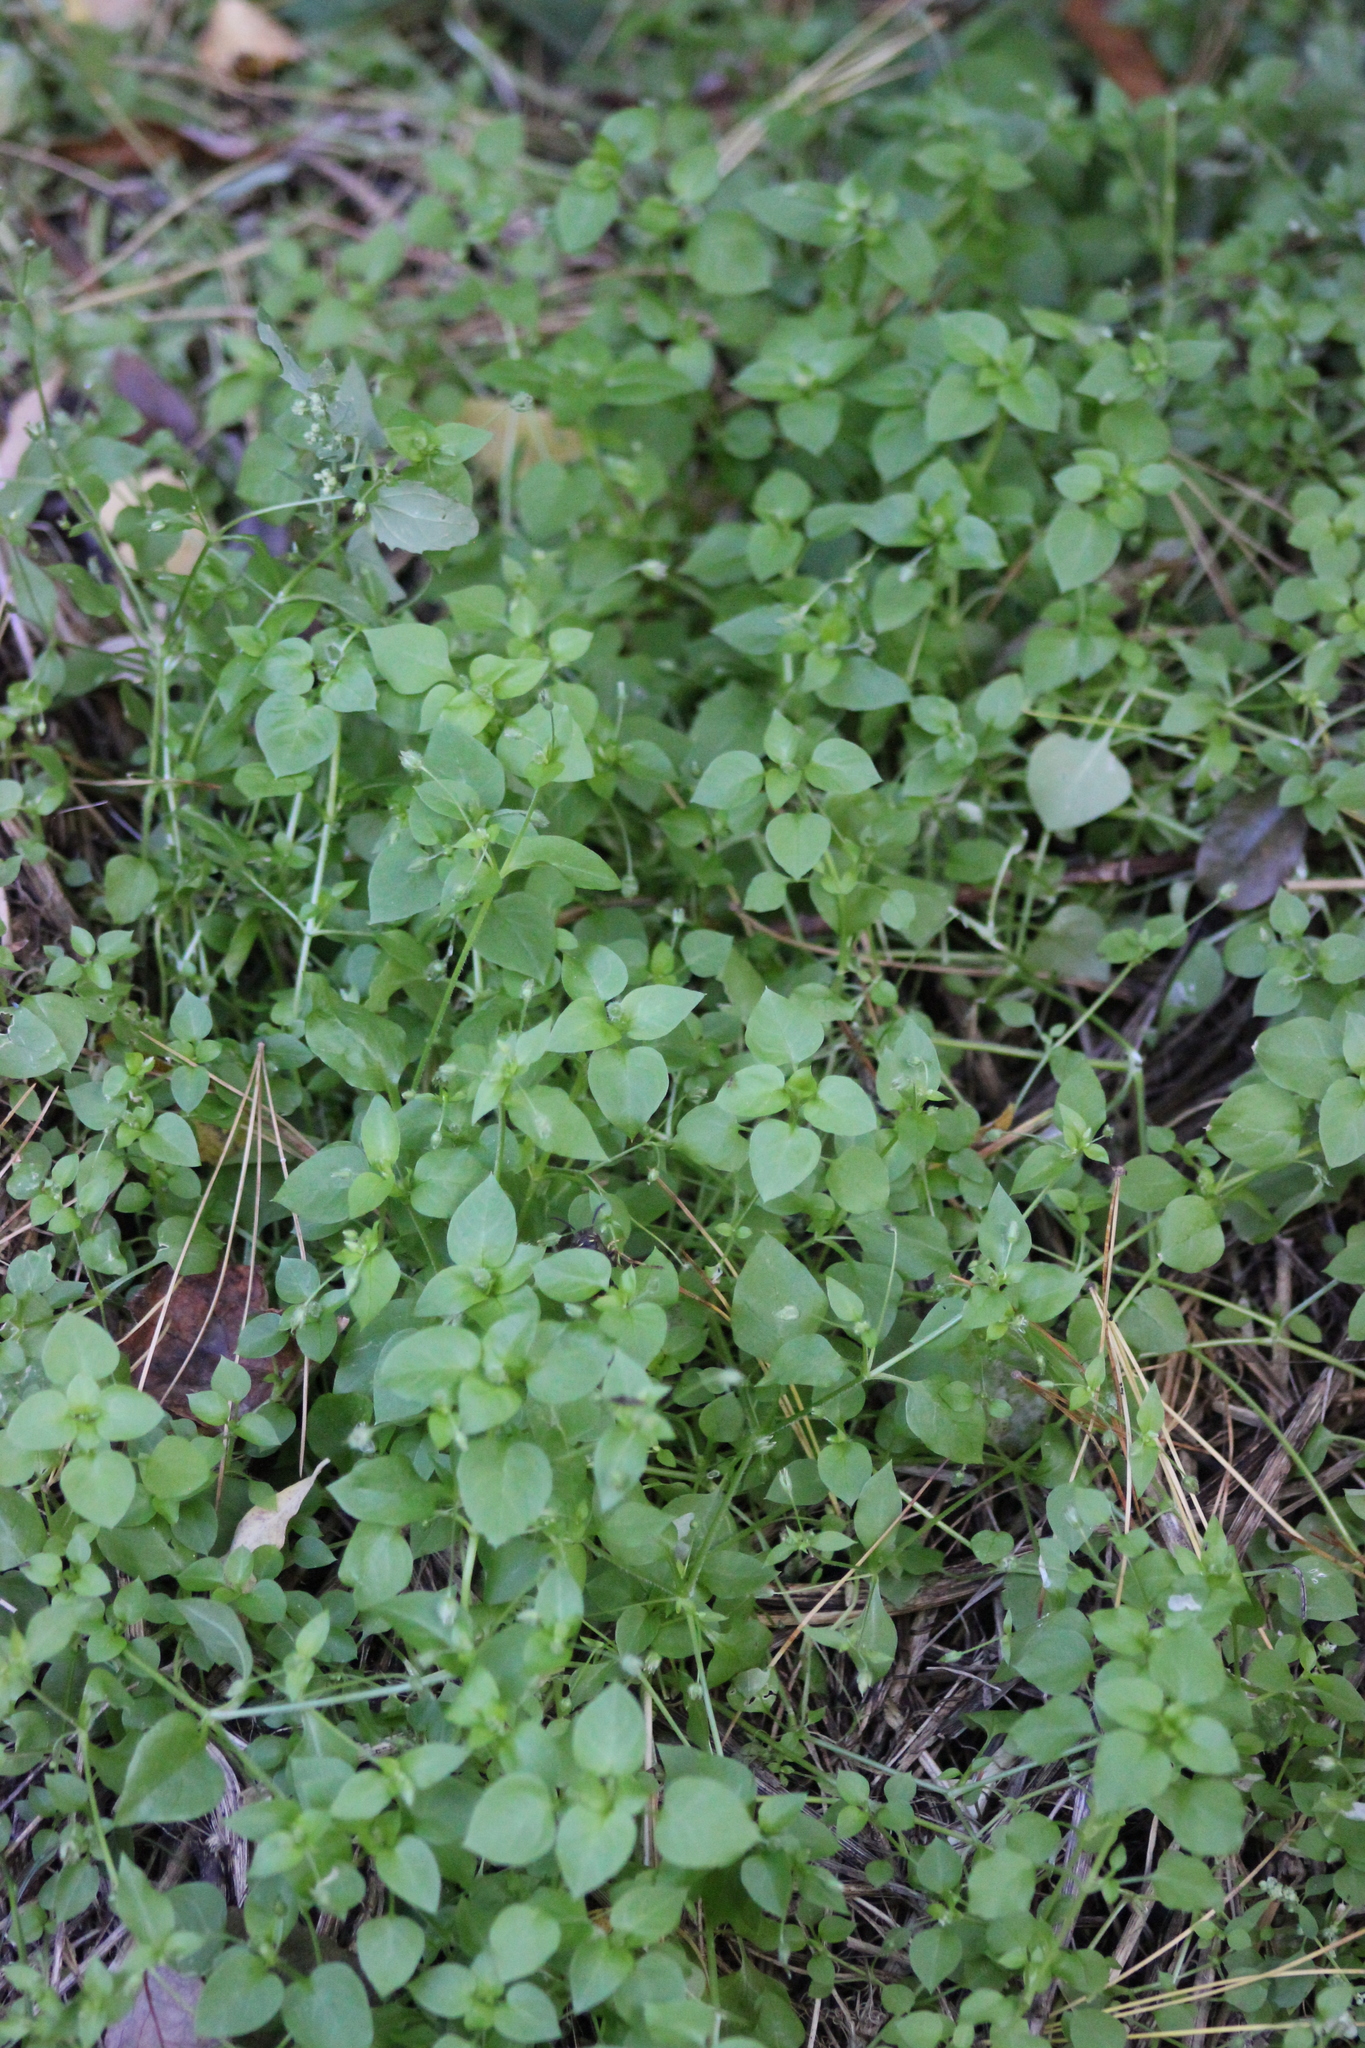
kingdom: Plantae
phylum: Tracheophyta
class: Magnoliopsida
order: Caryophyllales
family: Caryophyllaceae
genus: Stellaria
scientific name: Stellaria media
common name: Common chickweed
